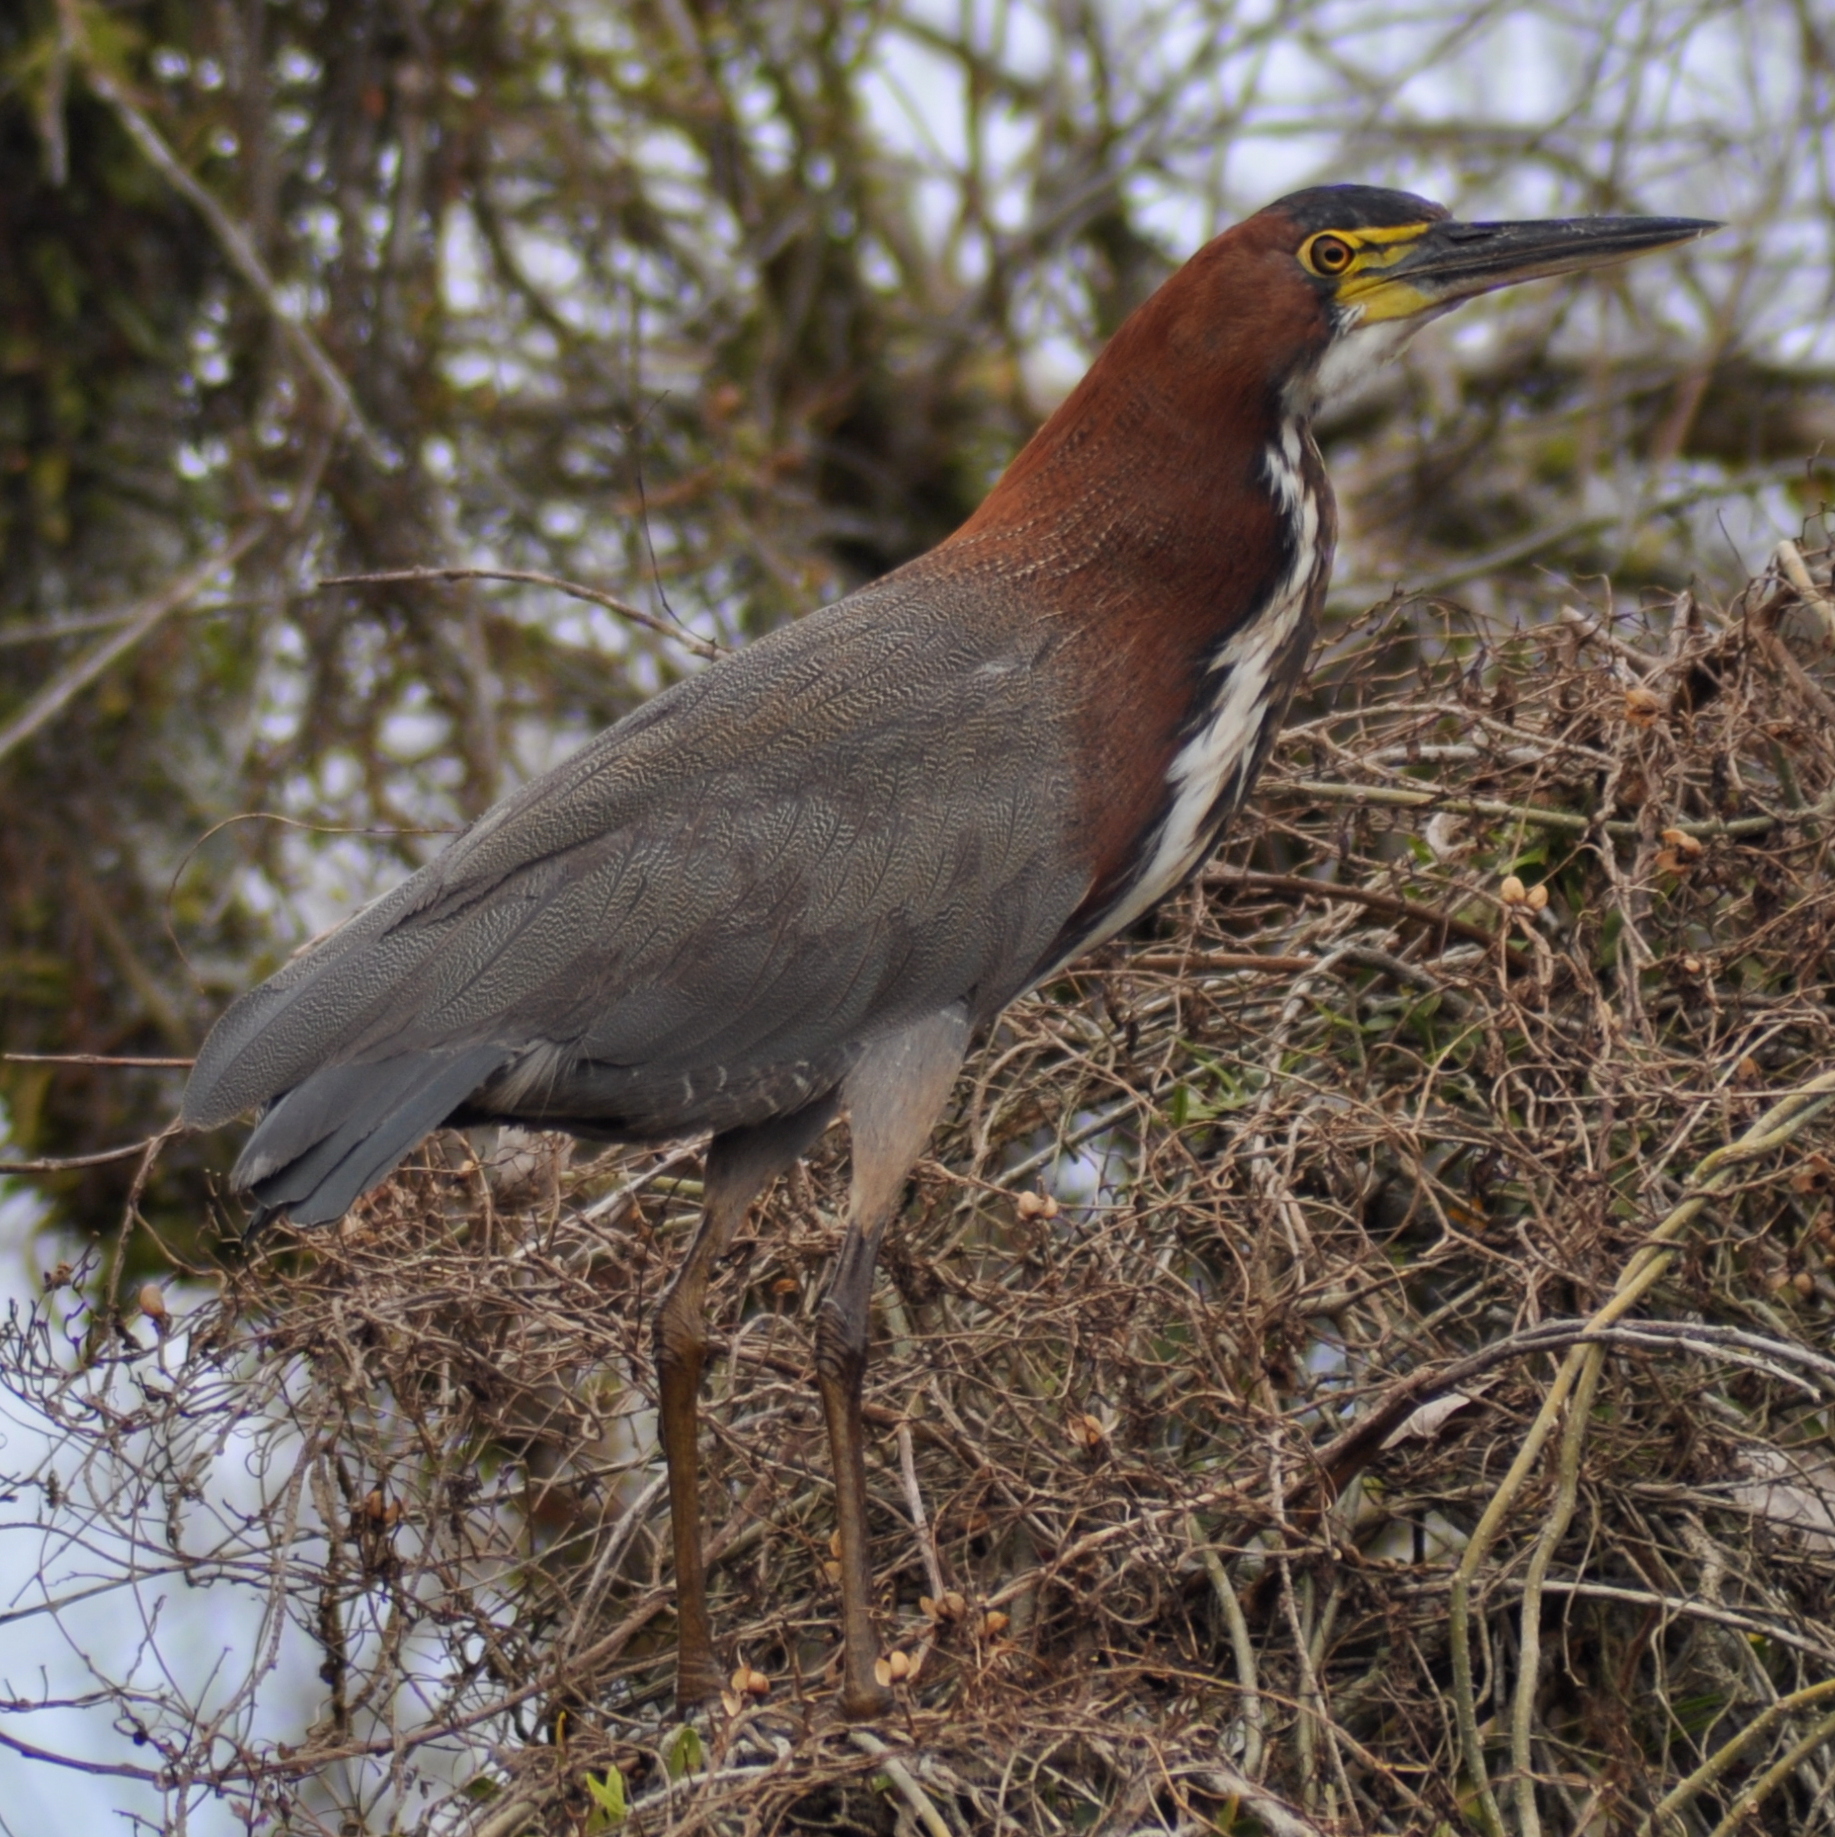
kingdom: Animalia
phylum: Chordata
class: Aves
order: Pelecaniformes
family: Ardeidae
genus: Tigrisoma
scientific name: Tigrisoma lineatum
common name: Rufescent tiger-heron
